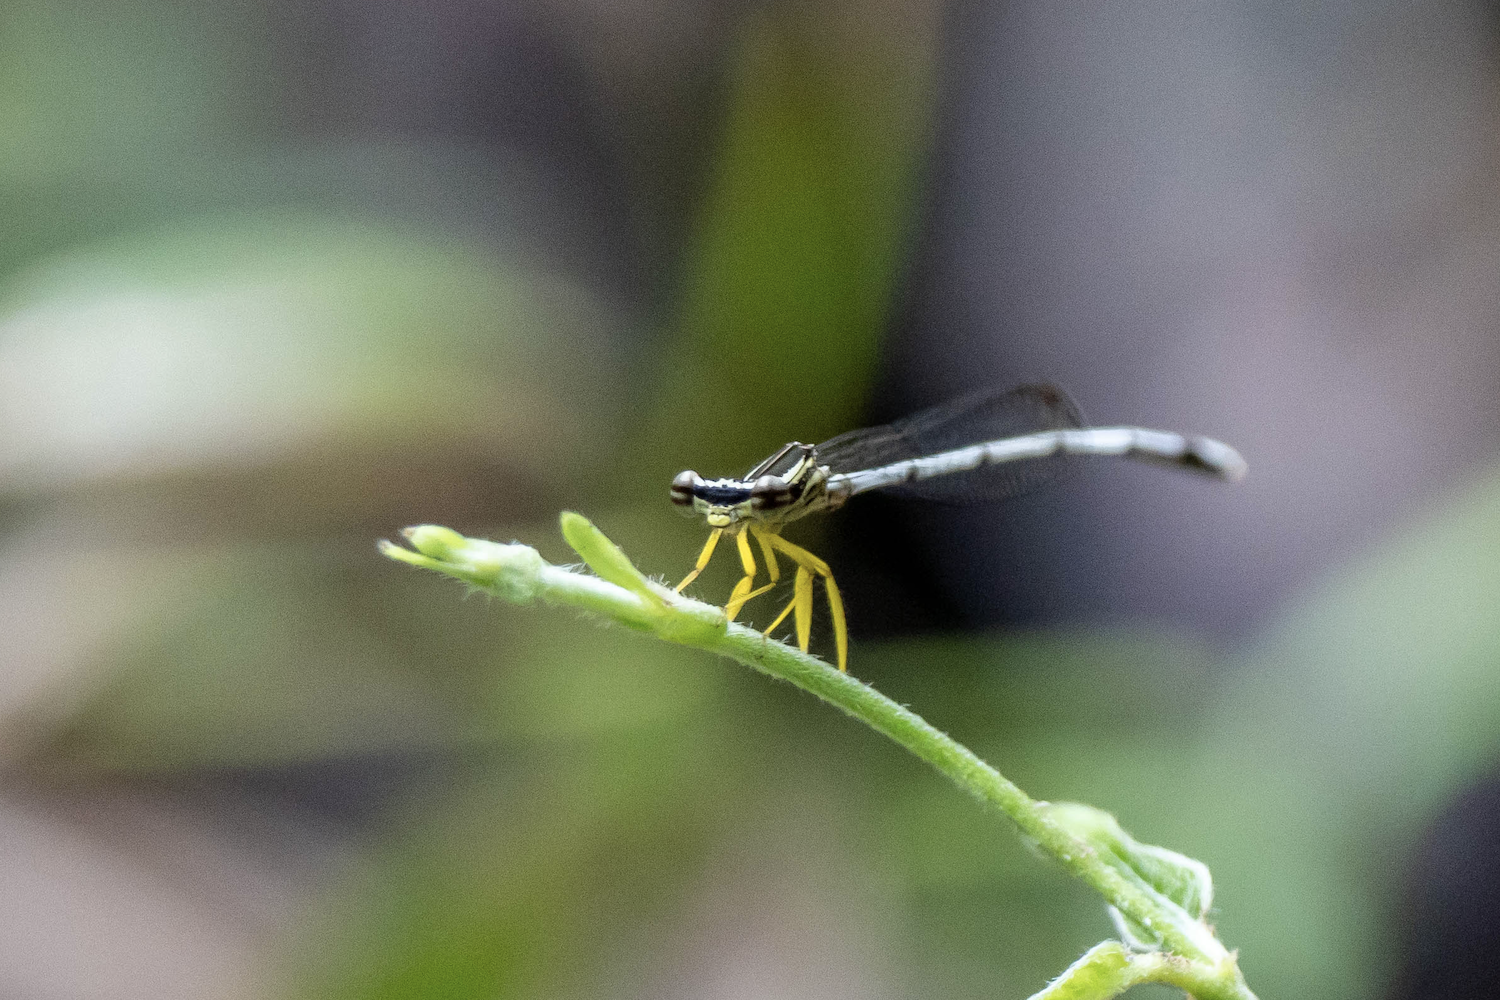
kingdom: Animalia
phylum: Arthropoda
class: Insecta
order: Odonata
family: Platycnemididae
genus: Copera
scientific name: Copera marginipes
